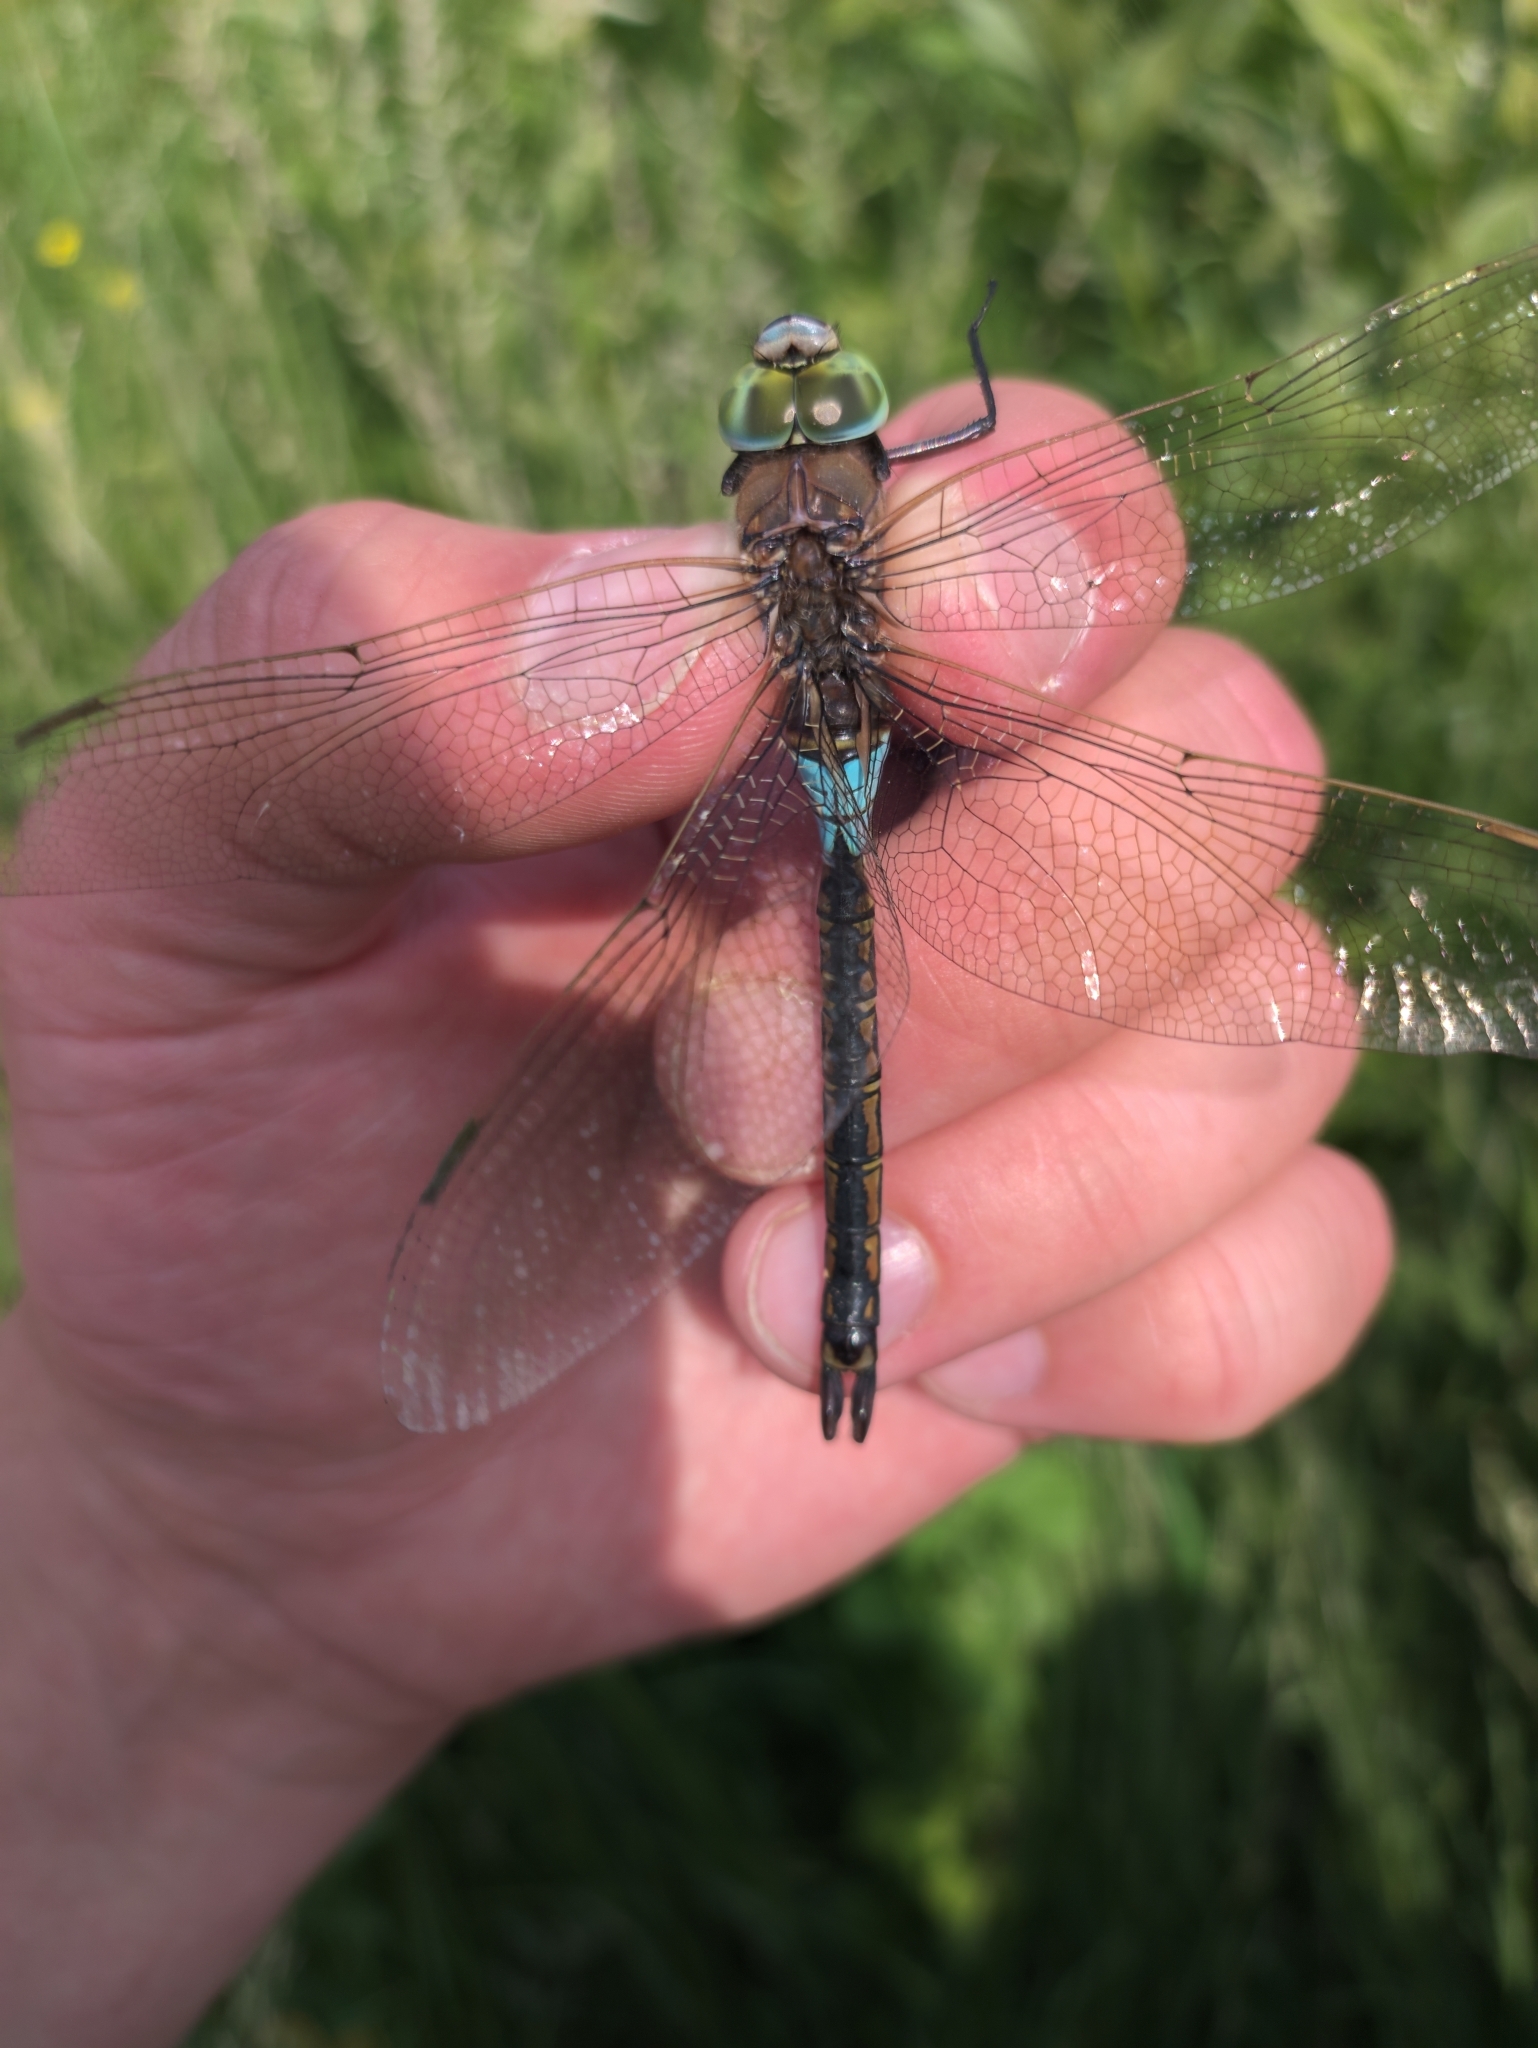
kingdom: Animalia
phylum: Arthropoda
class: Insecta
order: Odonata
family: Aeshnidae
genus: Anax
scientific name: Anax parthenope
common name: Lesser emperor
